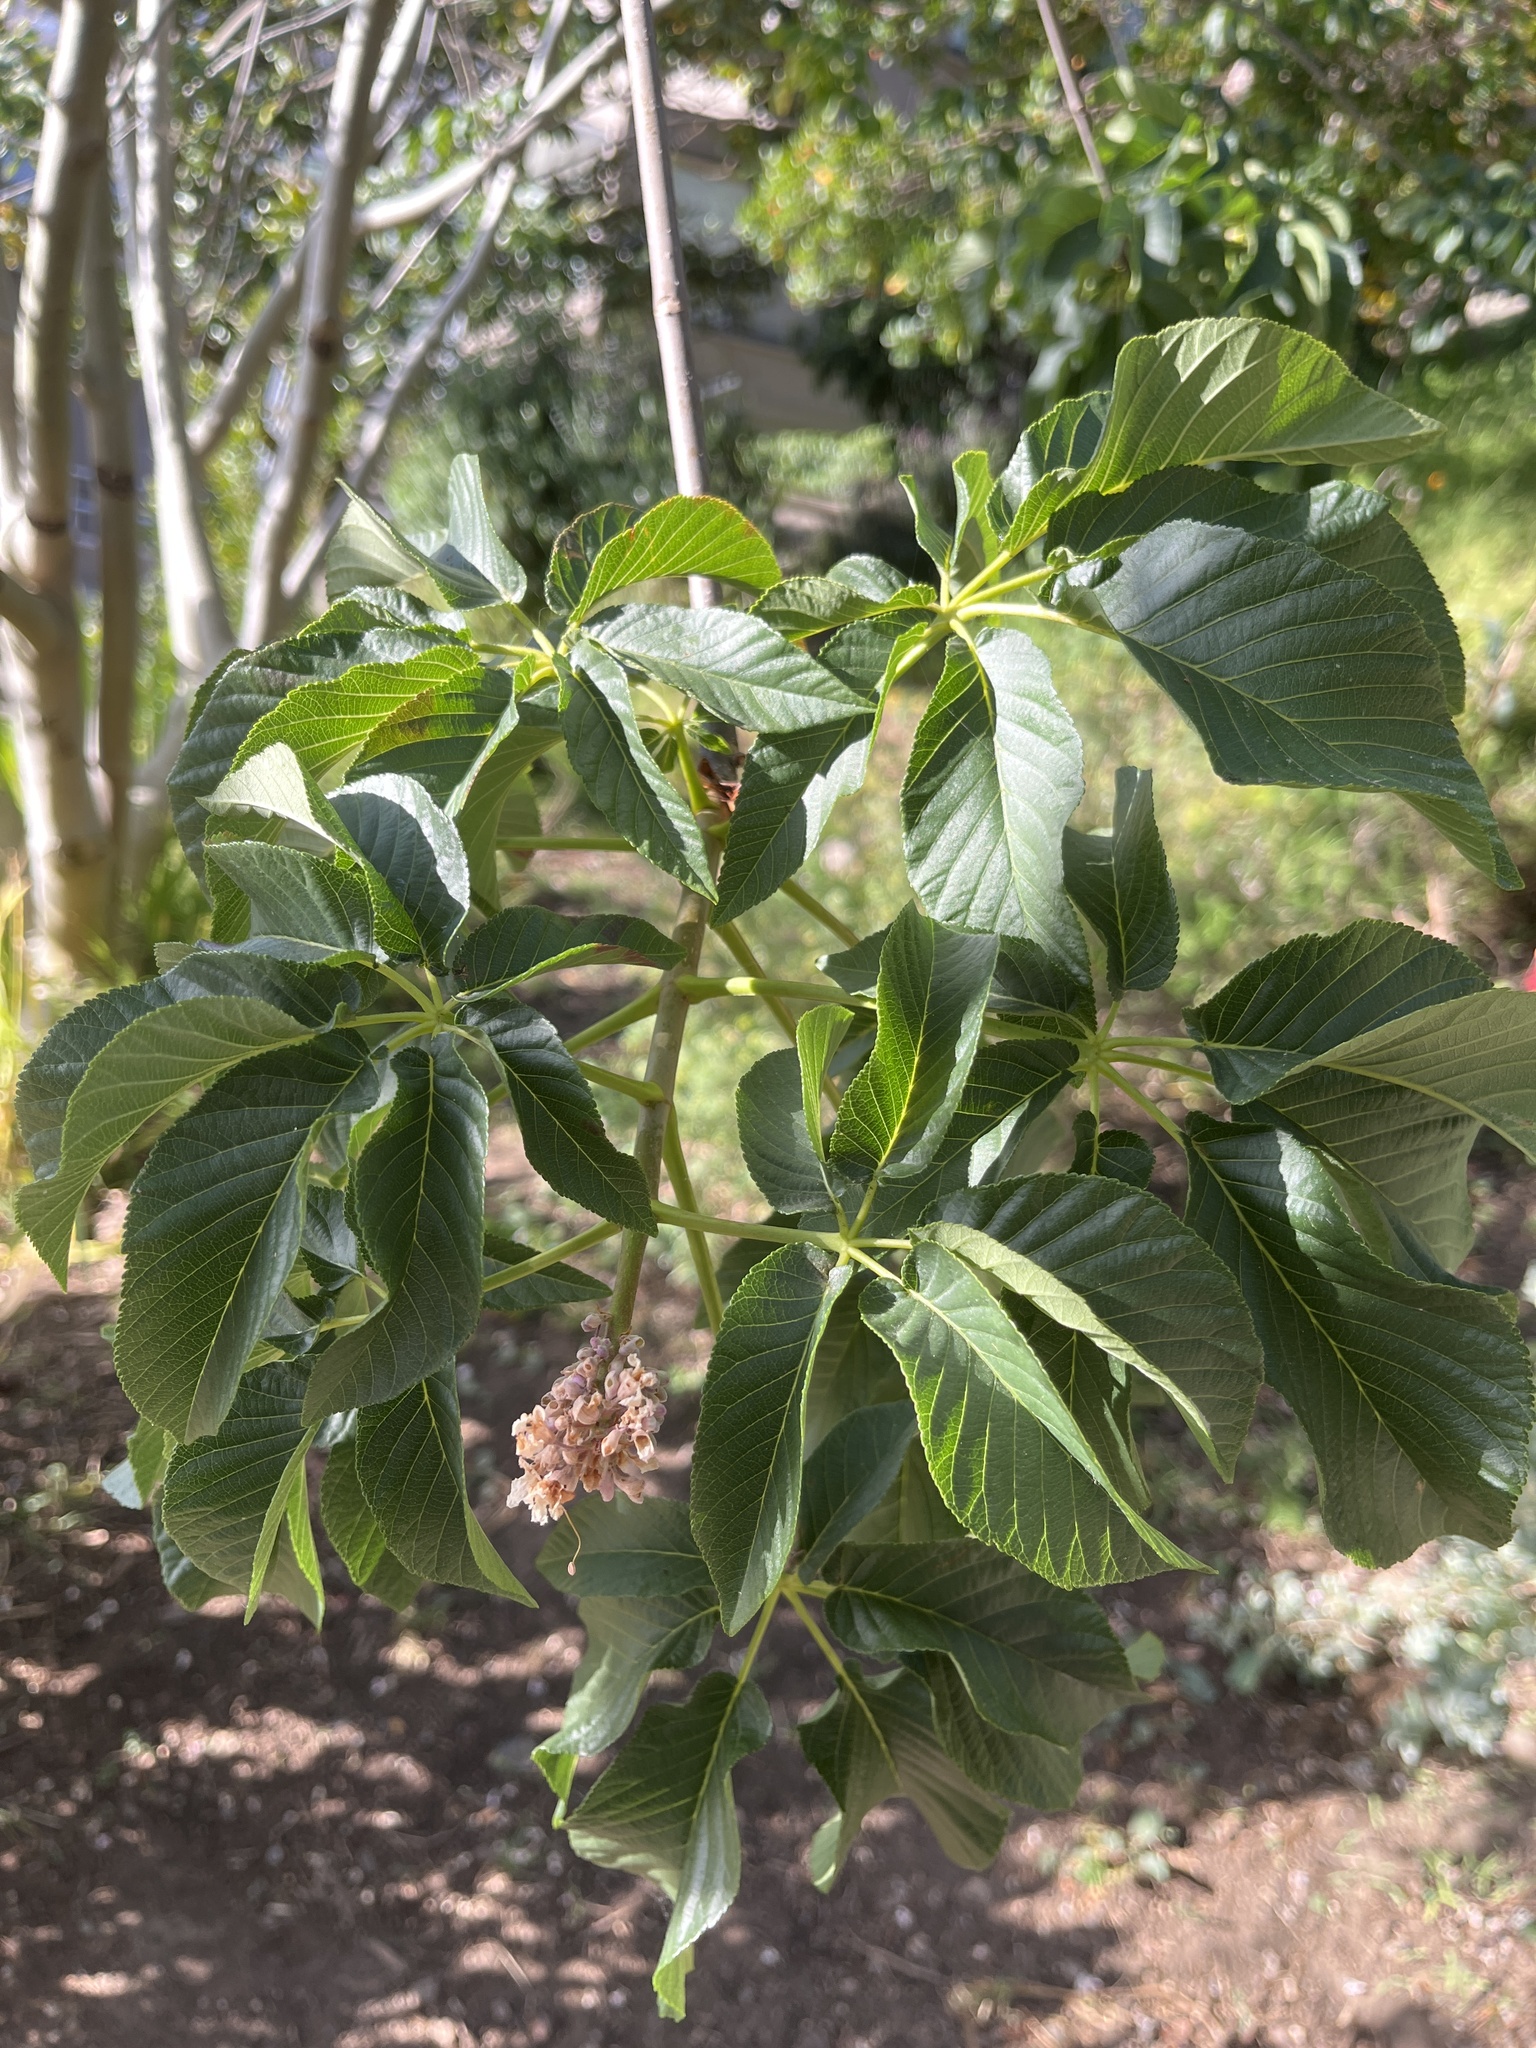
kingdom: Plantae
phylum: Tracheophyta
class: Magnoliopsida
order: Sapindales
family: Sapindaceae
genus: Aesculus
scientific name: Aesculus californica
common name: California buckeye
